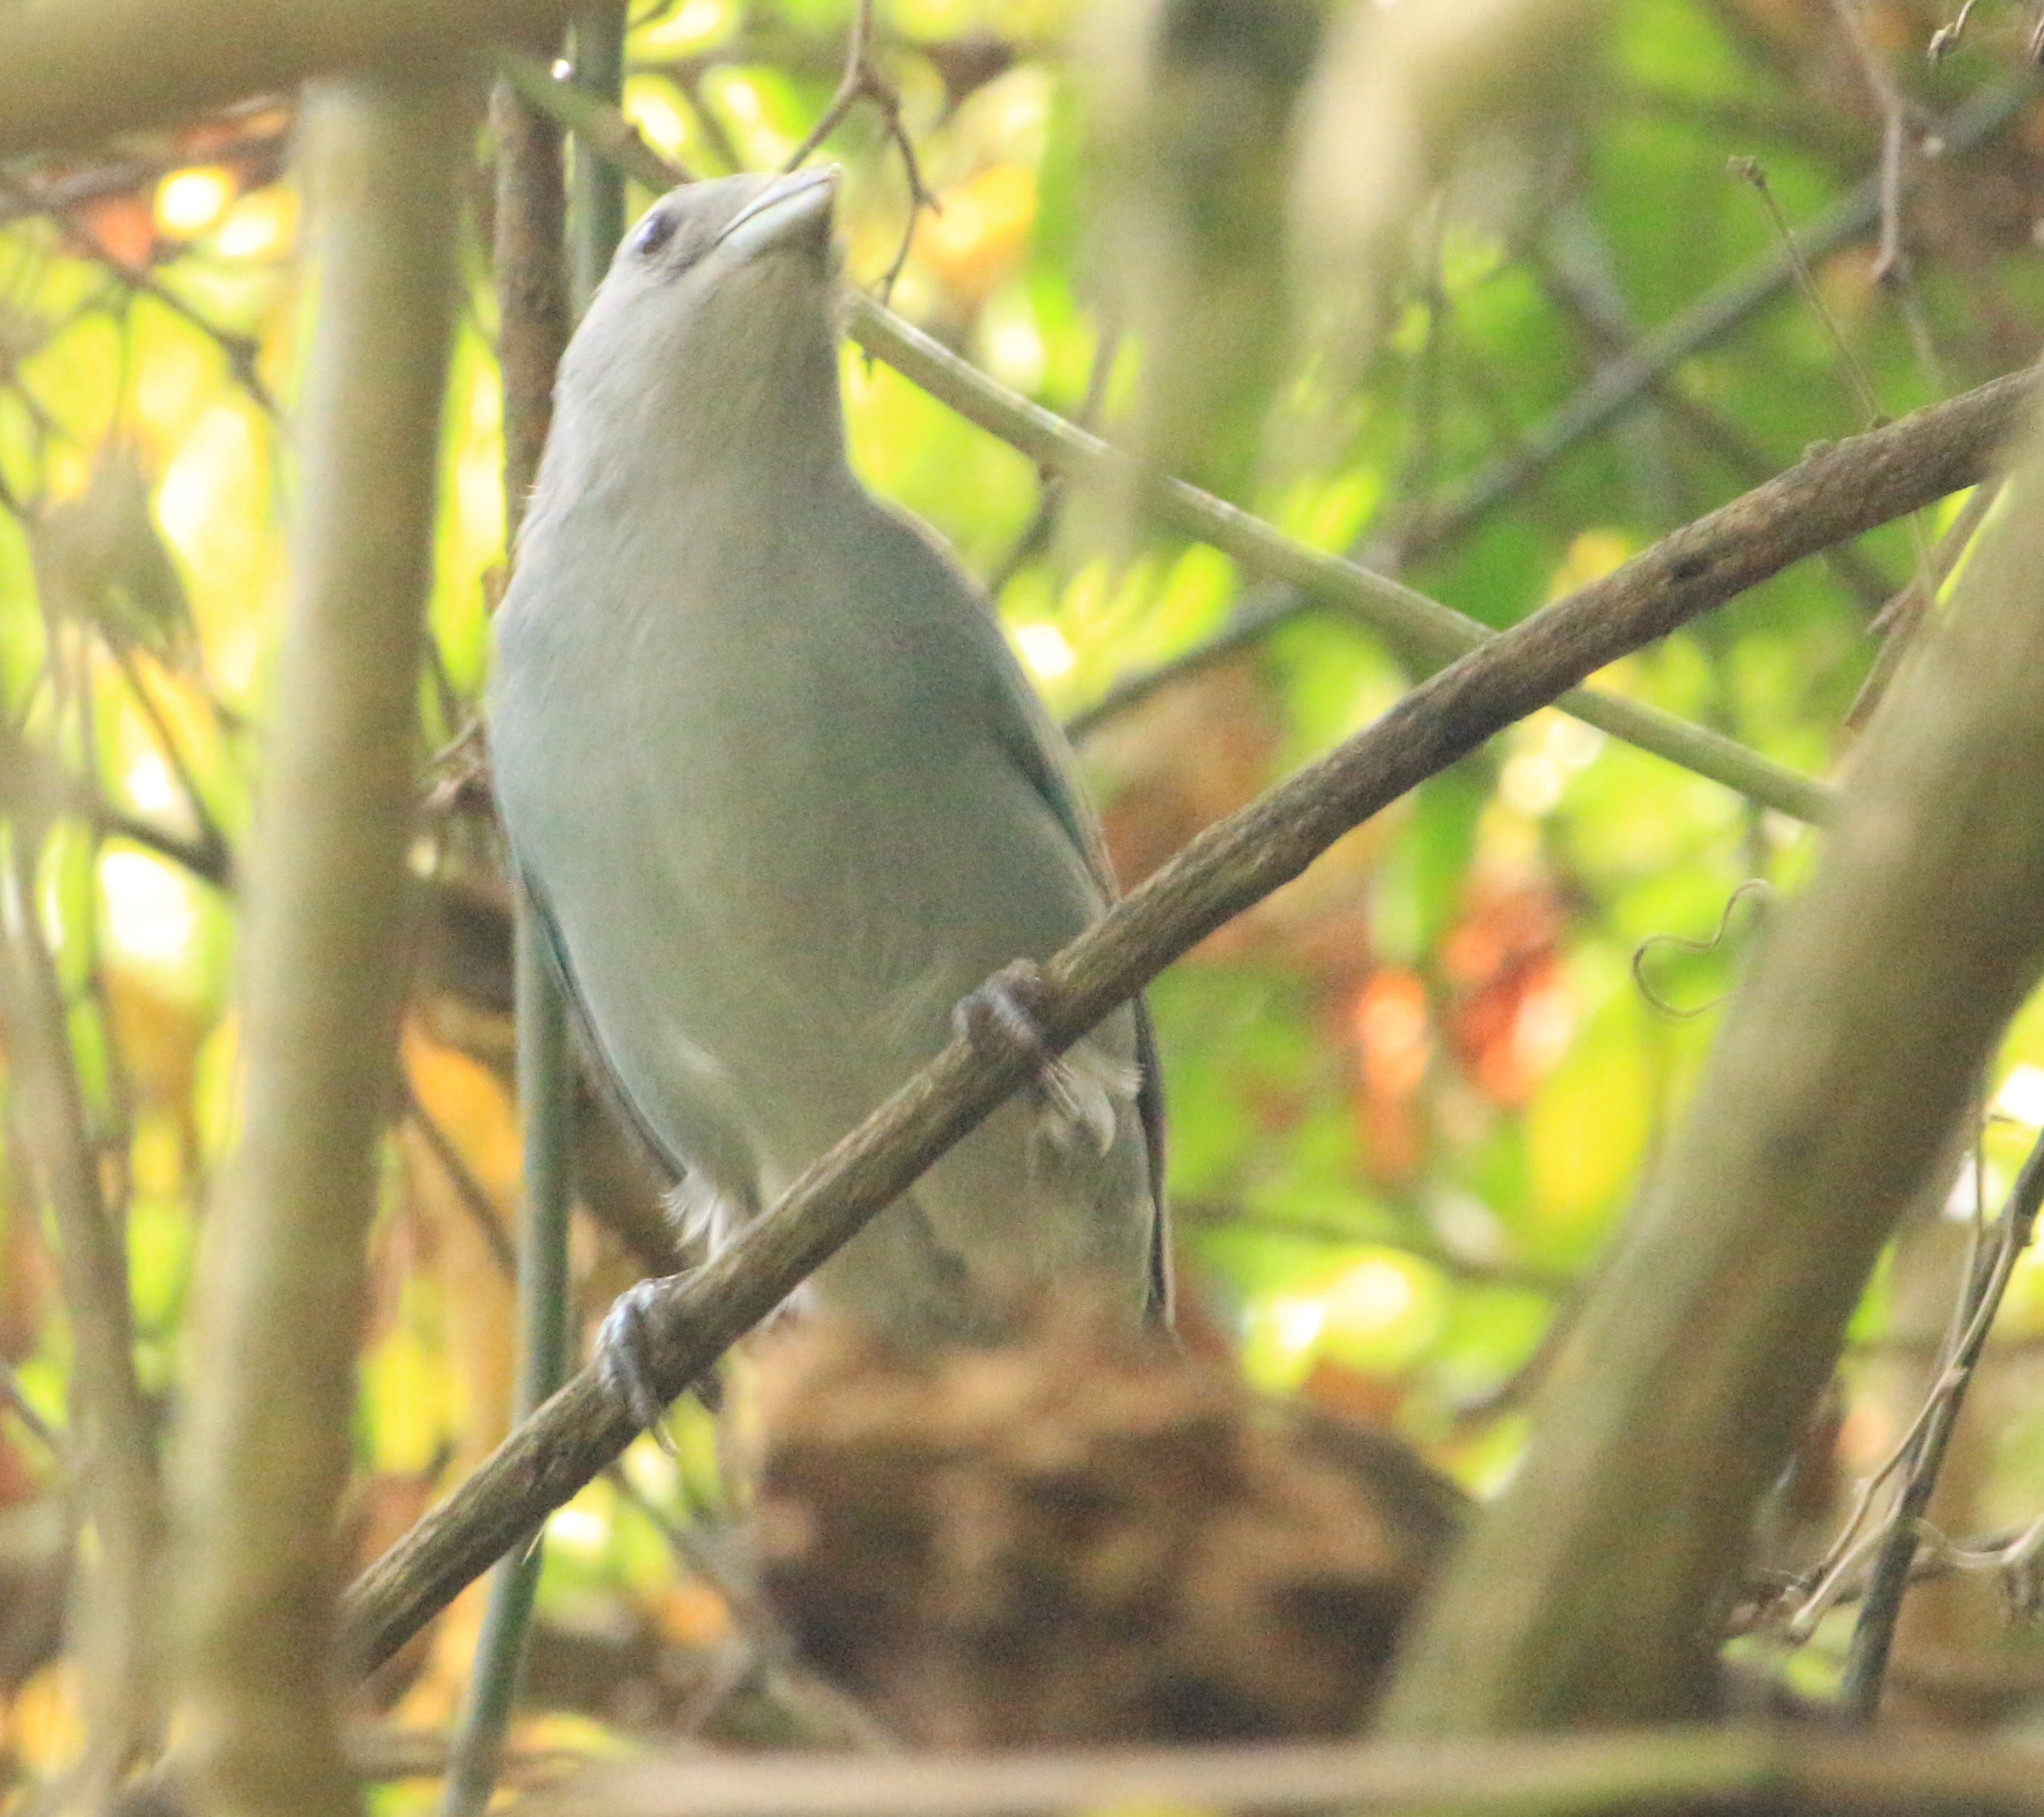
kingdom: Animalia
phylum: Chordata
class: Aves
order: Passeriformes
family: Thraupidae
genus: Thraupis
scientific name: Thraupis sayaca
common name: Sayaca tanager
